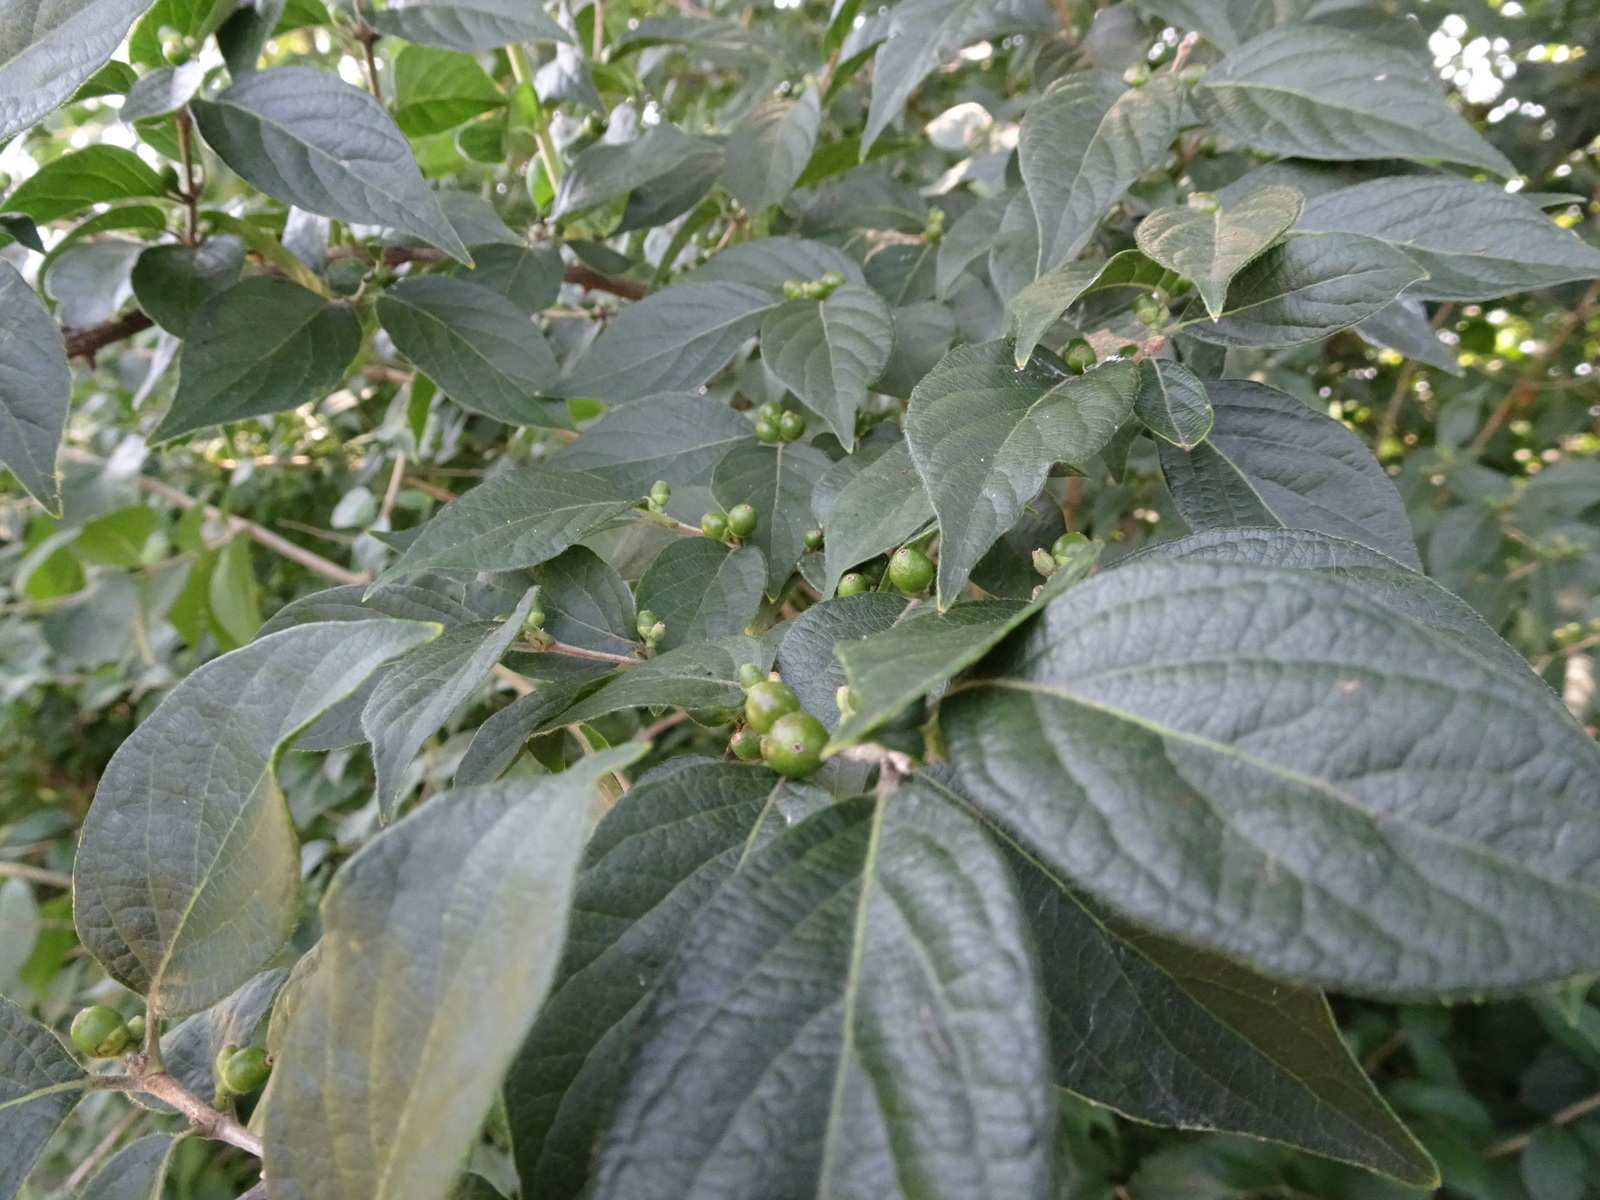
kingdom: Plantae
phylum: Tracheophyta
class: Magnoliopsida
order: Dipsacales
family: Caprifoliaceae
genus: Lonicera
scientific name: Lonicera maackii
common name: Amur honeysuckle
